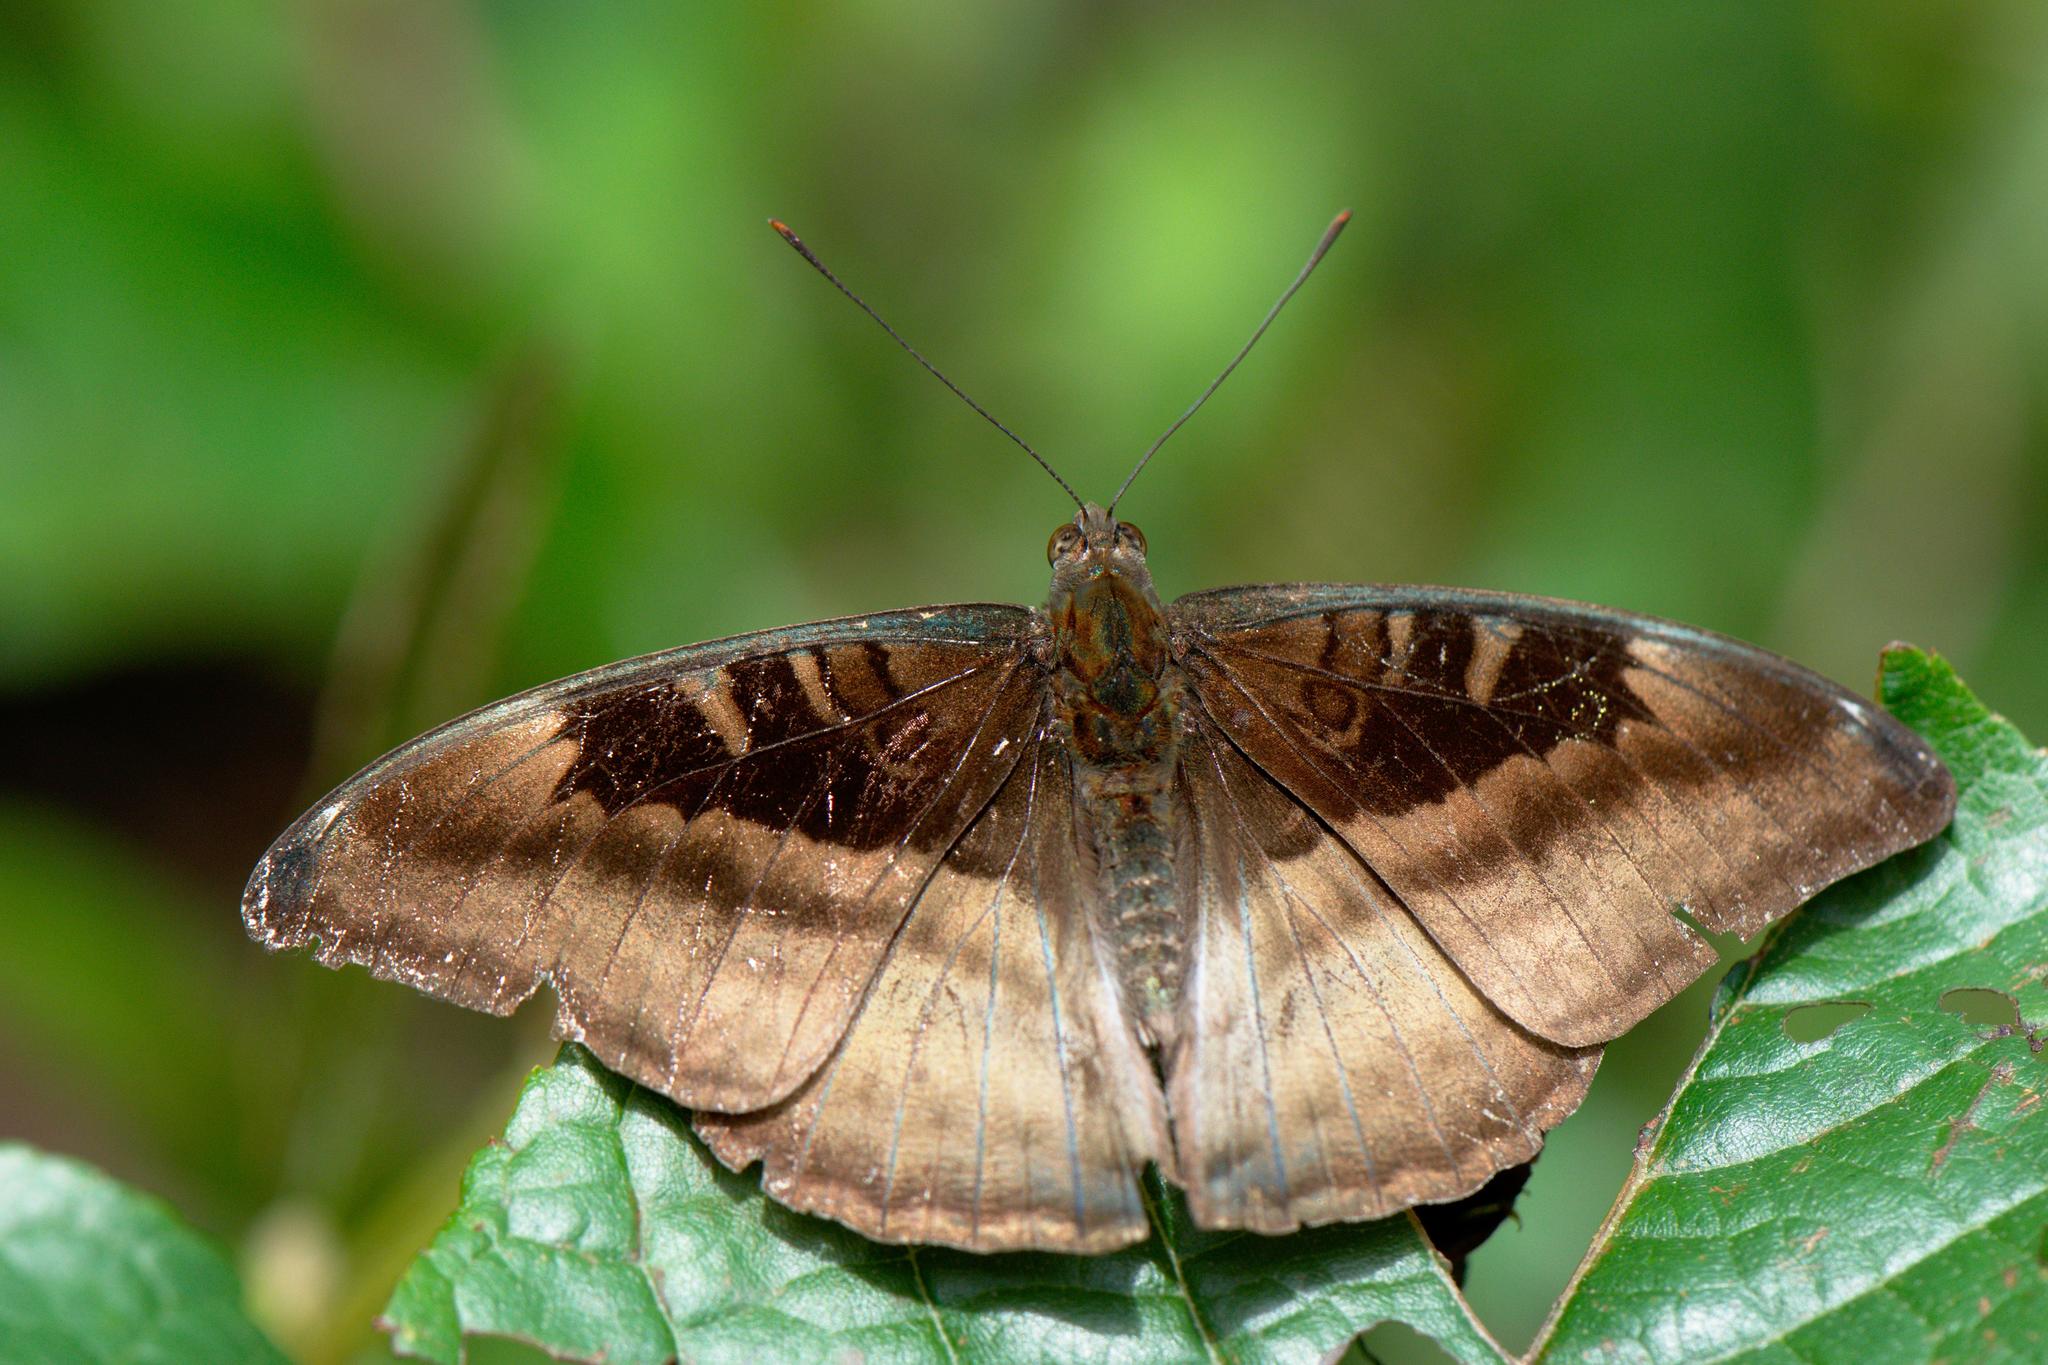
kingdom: Animalia
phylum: Arthropoda
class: Insecta
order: Lepidoptera
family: Nymphalidae
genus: Limenitis
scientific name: Limenitis Auzakia danava
